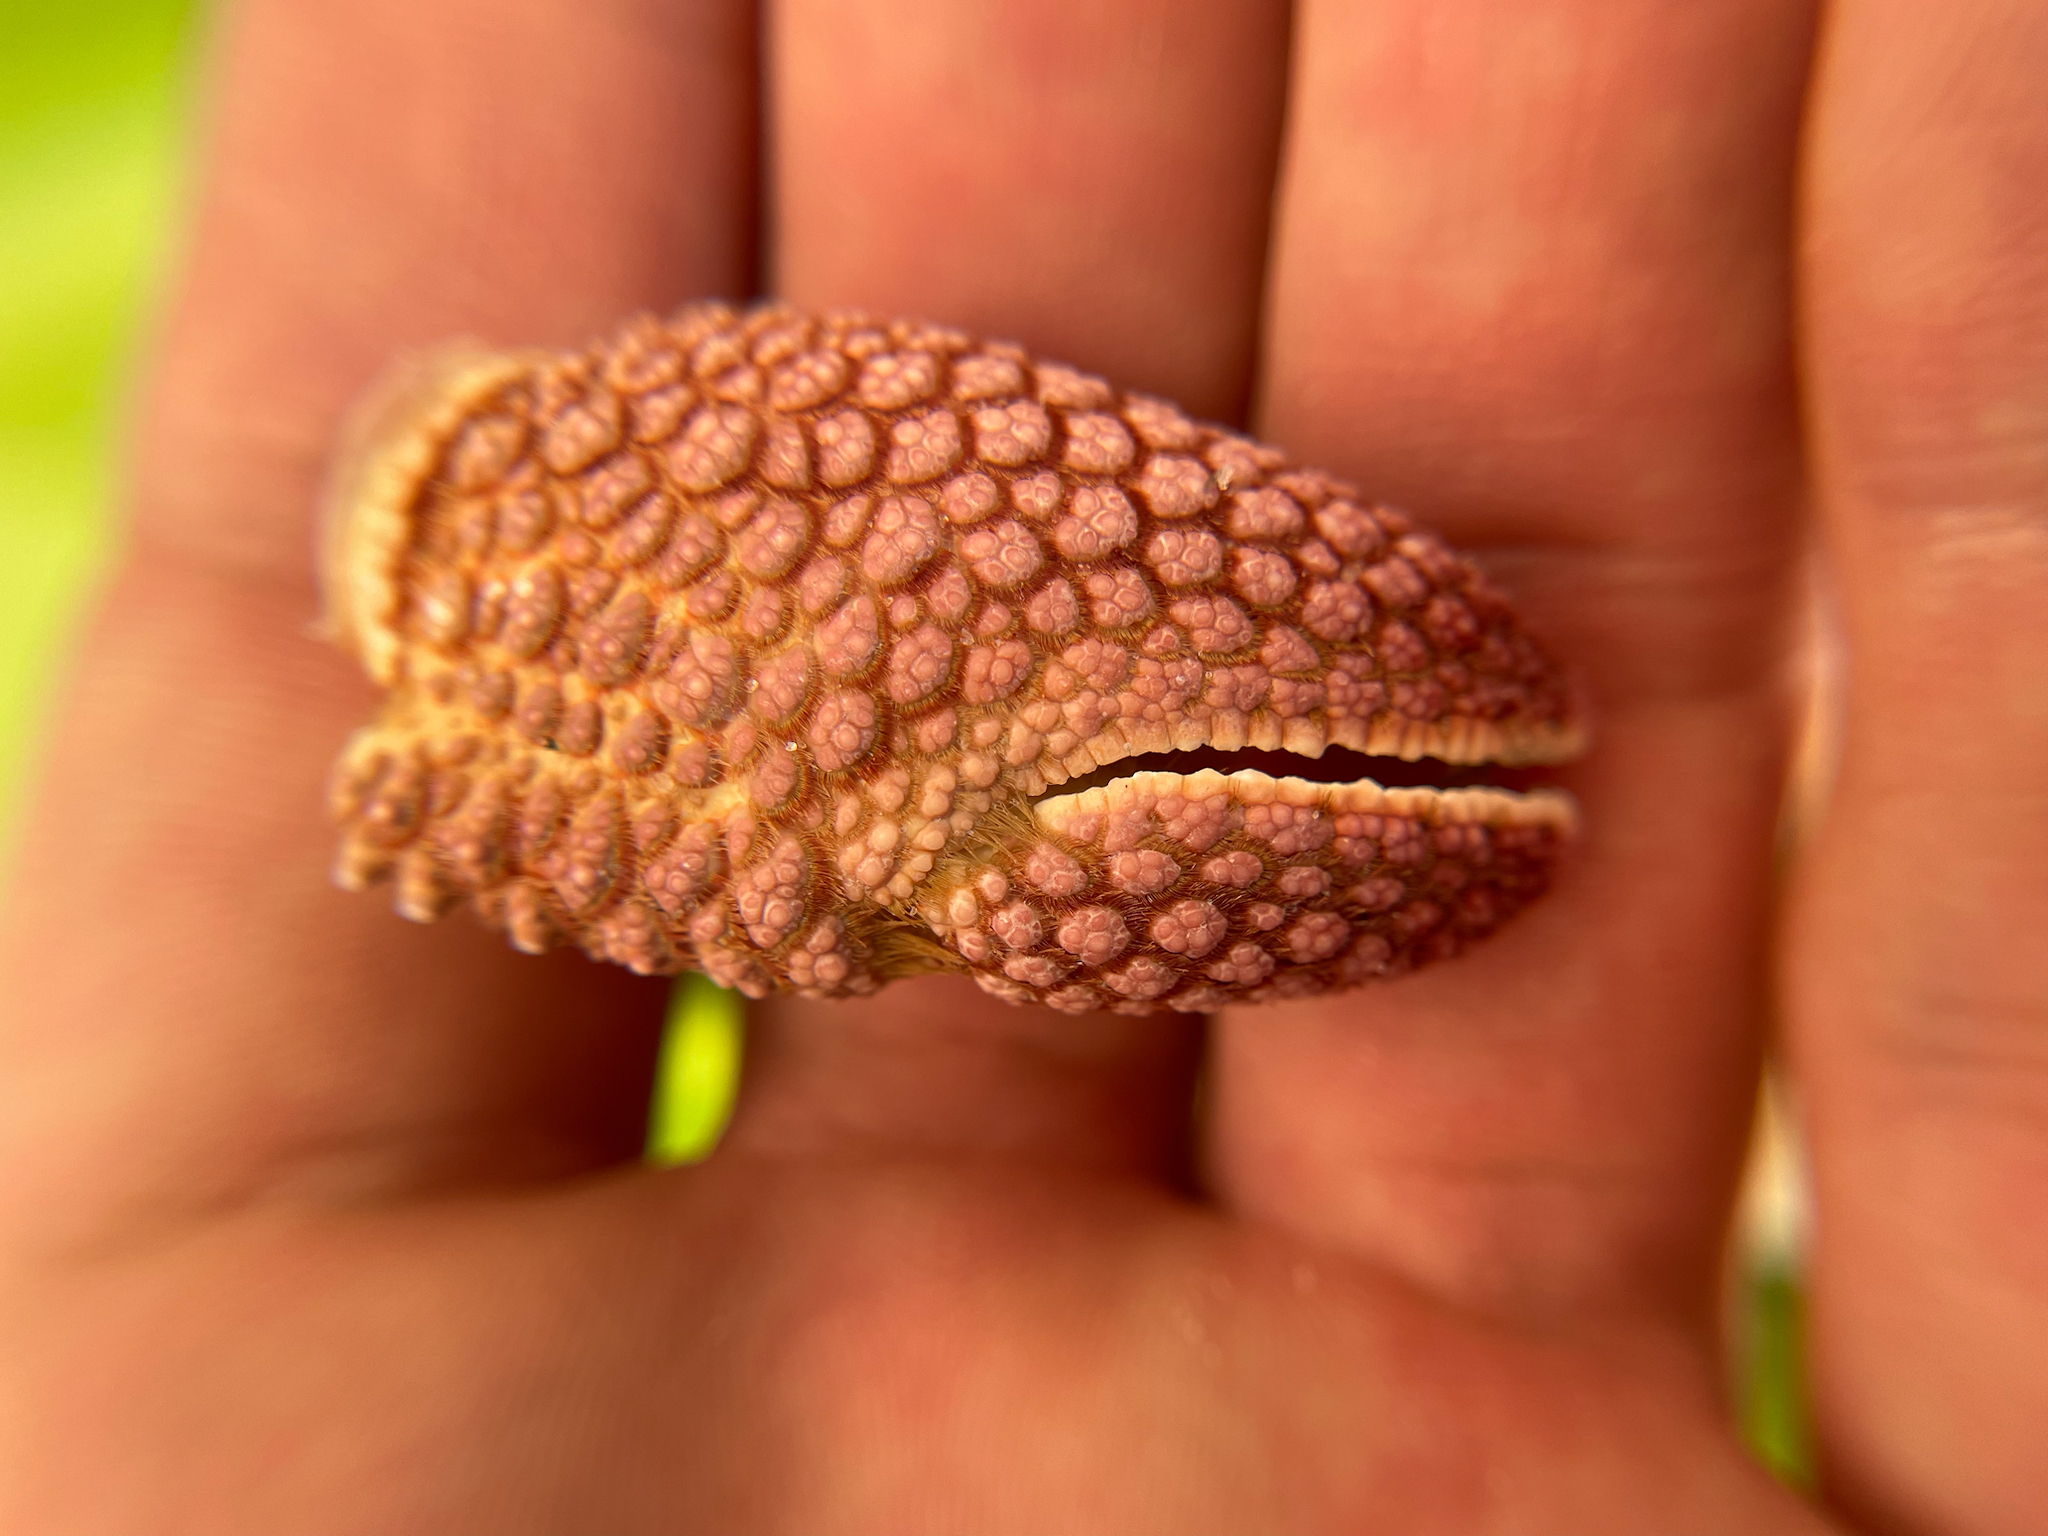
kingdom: Animalia
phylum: Arthropoda
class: Malacostraca
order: Decapoda
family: Diogenidae
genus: Petrochirus
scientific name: Petrochirus diogenes
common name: Giant hermit crab
